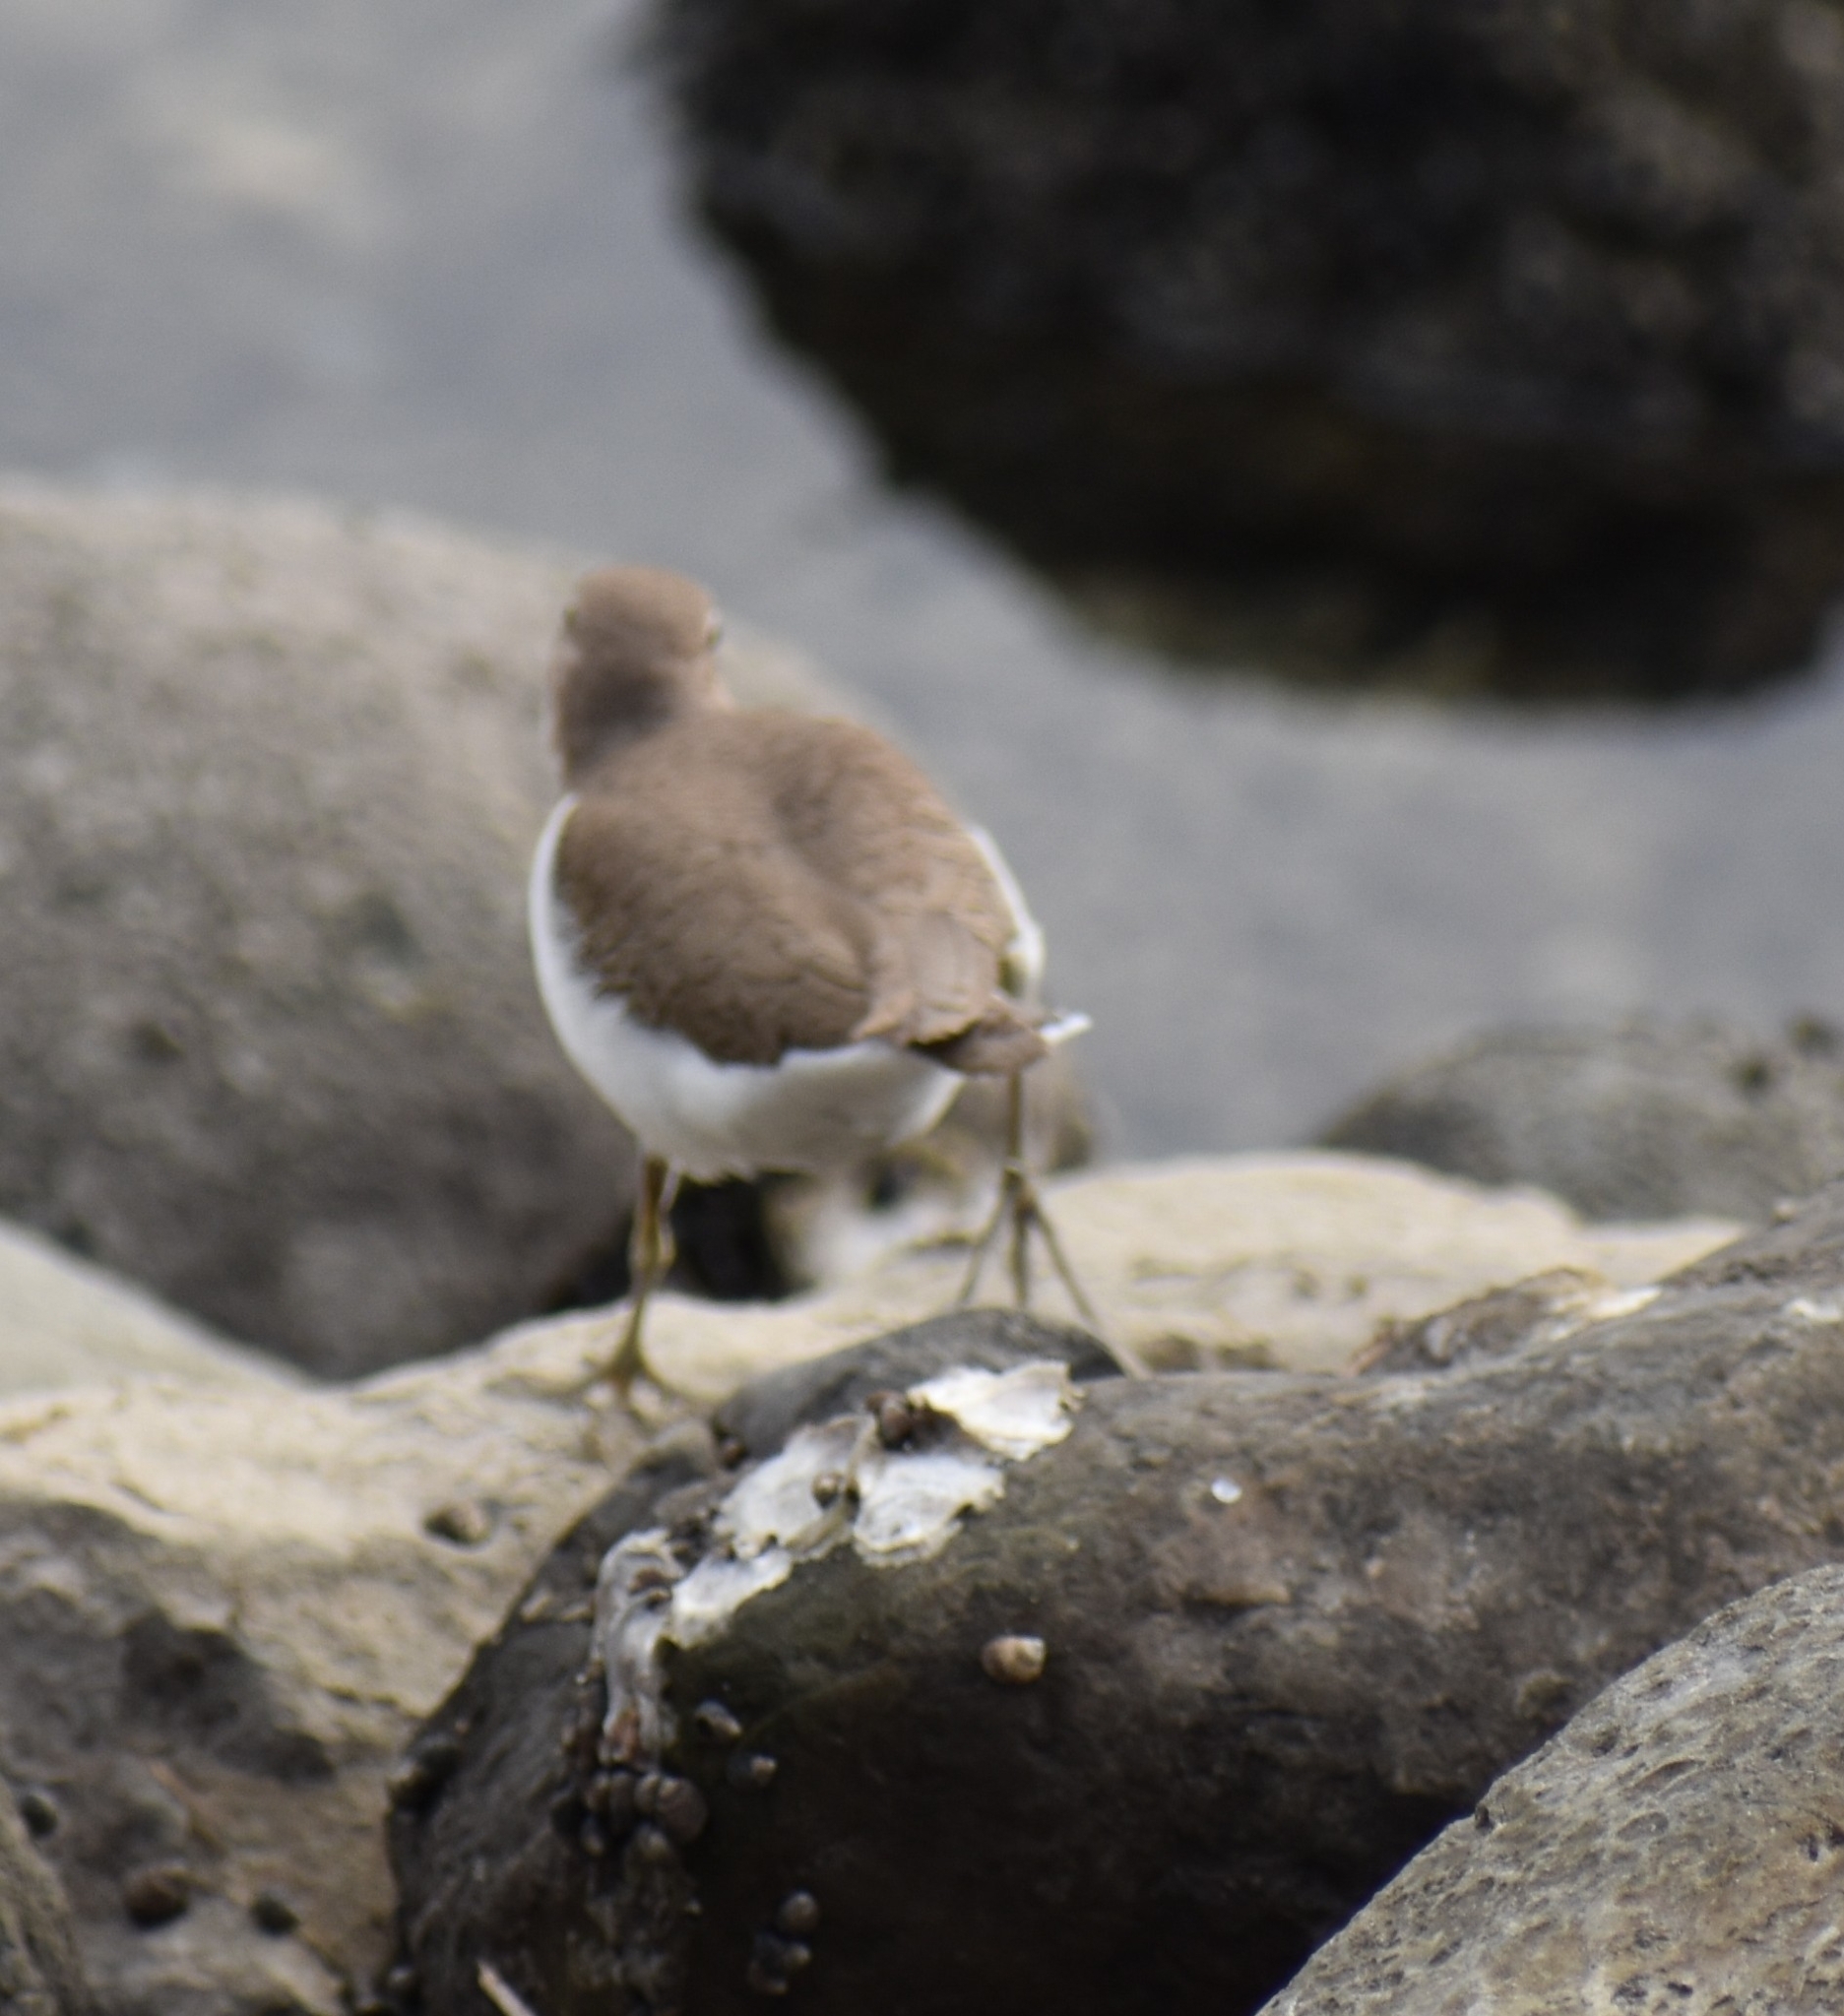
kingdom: Animalia
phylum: Chordata
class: Aves
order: Charadriiformes
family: Scolopacidae
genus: Actitis
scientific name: Actitis hypoleucos
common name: Common sandpiper
